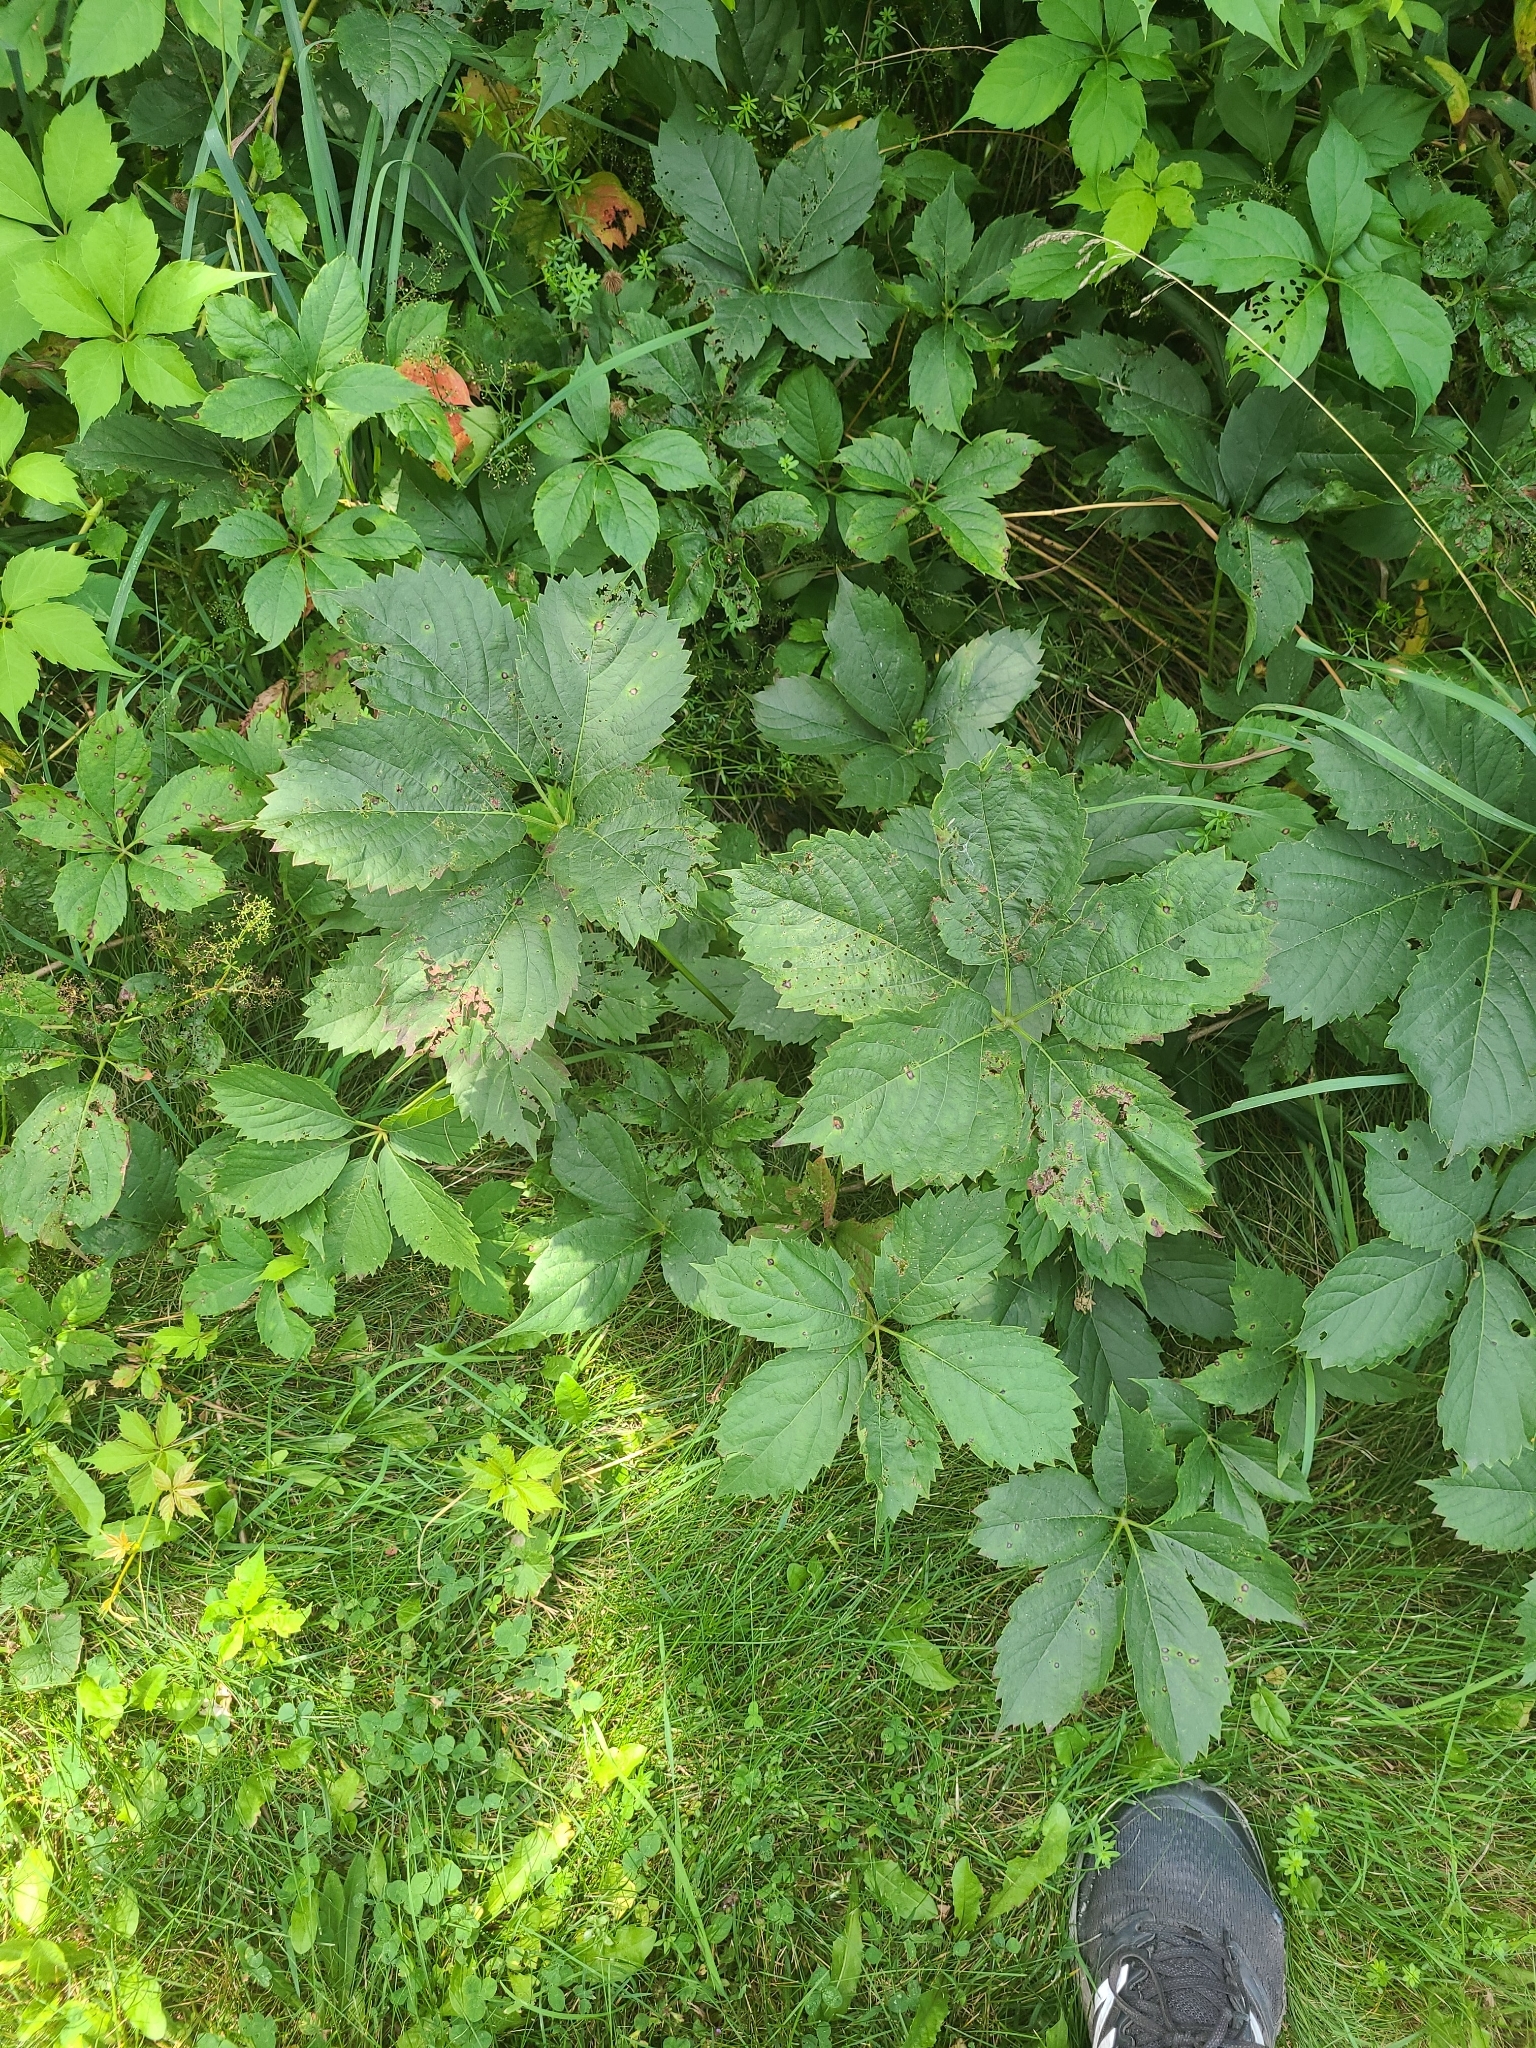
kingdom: Plantae
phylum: Tracheophyta
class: Magnoliopsida
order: Vitales
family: Vitaceae
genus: Parthenocissus
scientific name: Parthenocissus inserta
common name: False virginia-creeper
